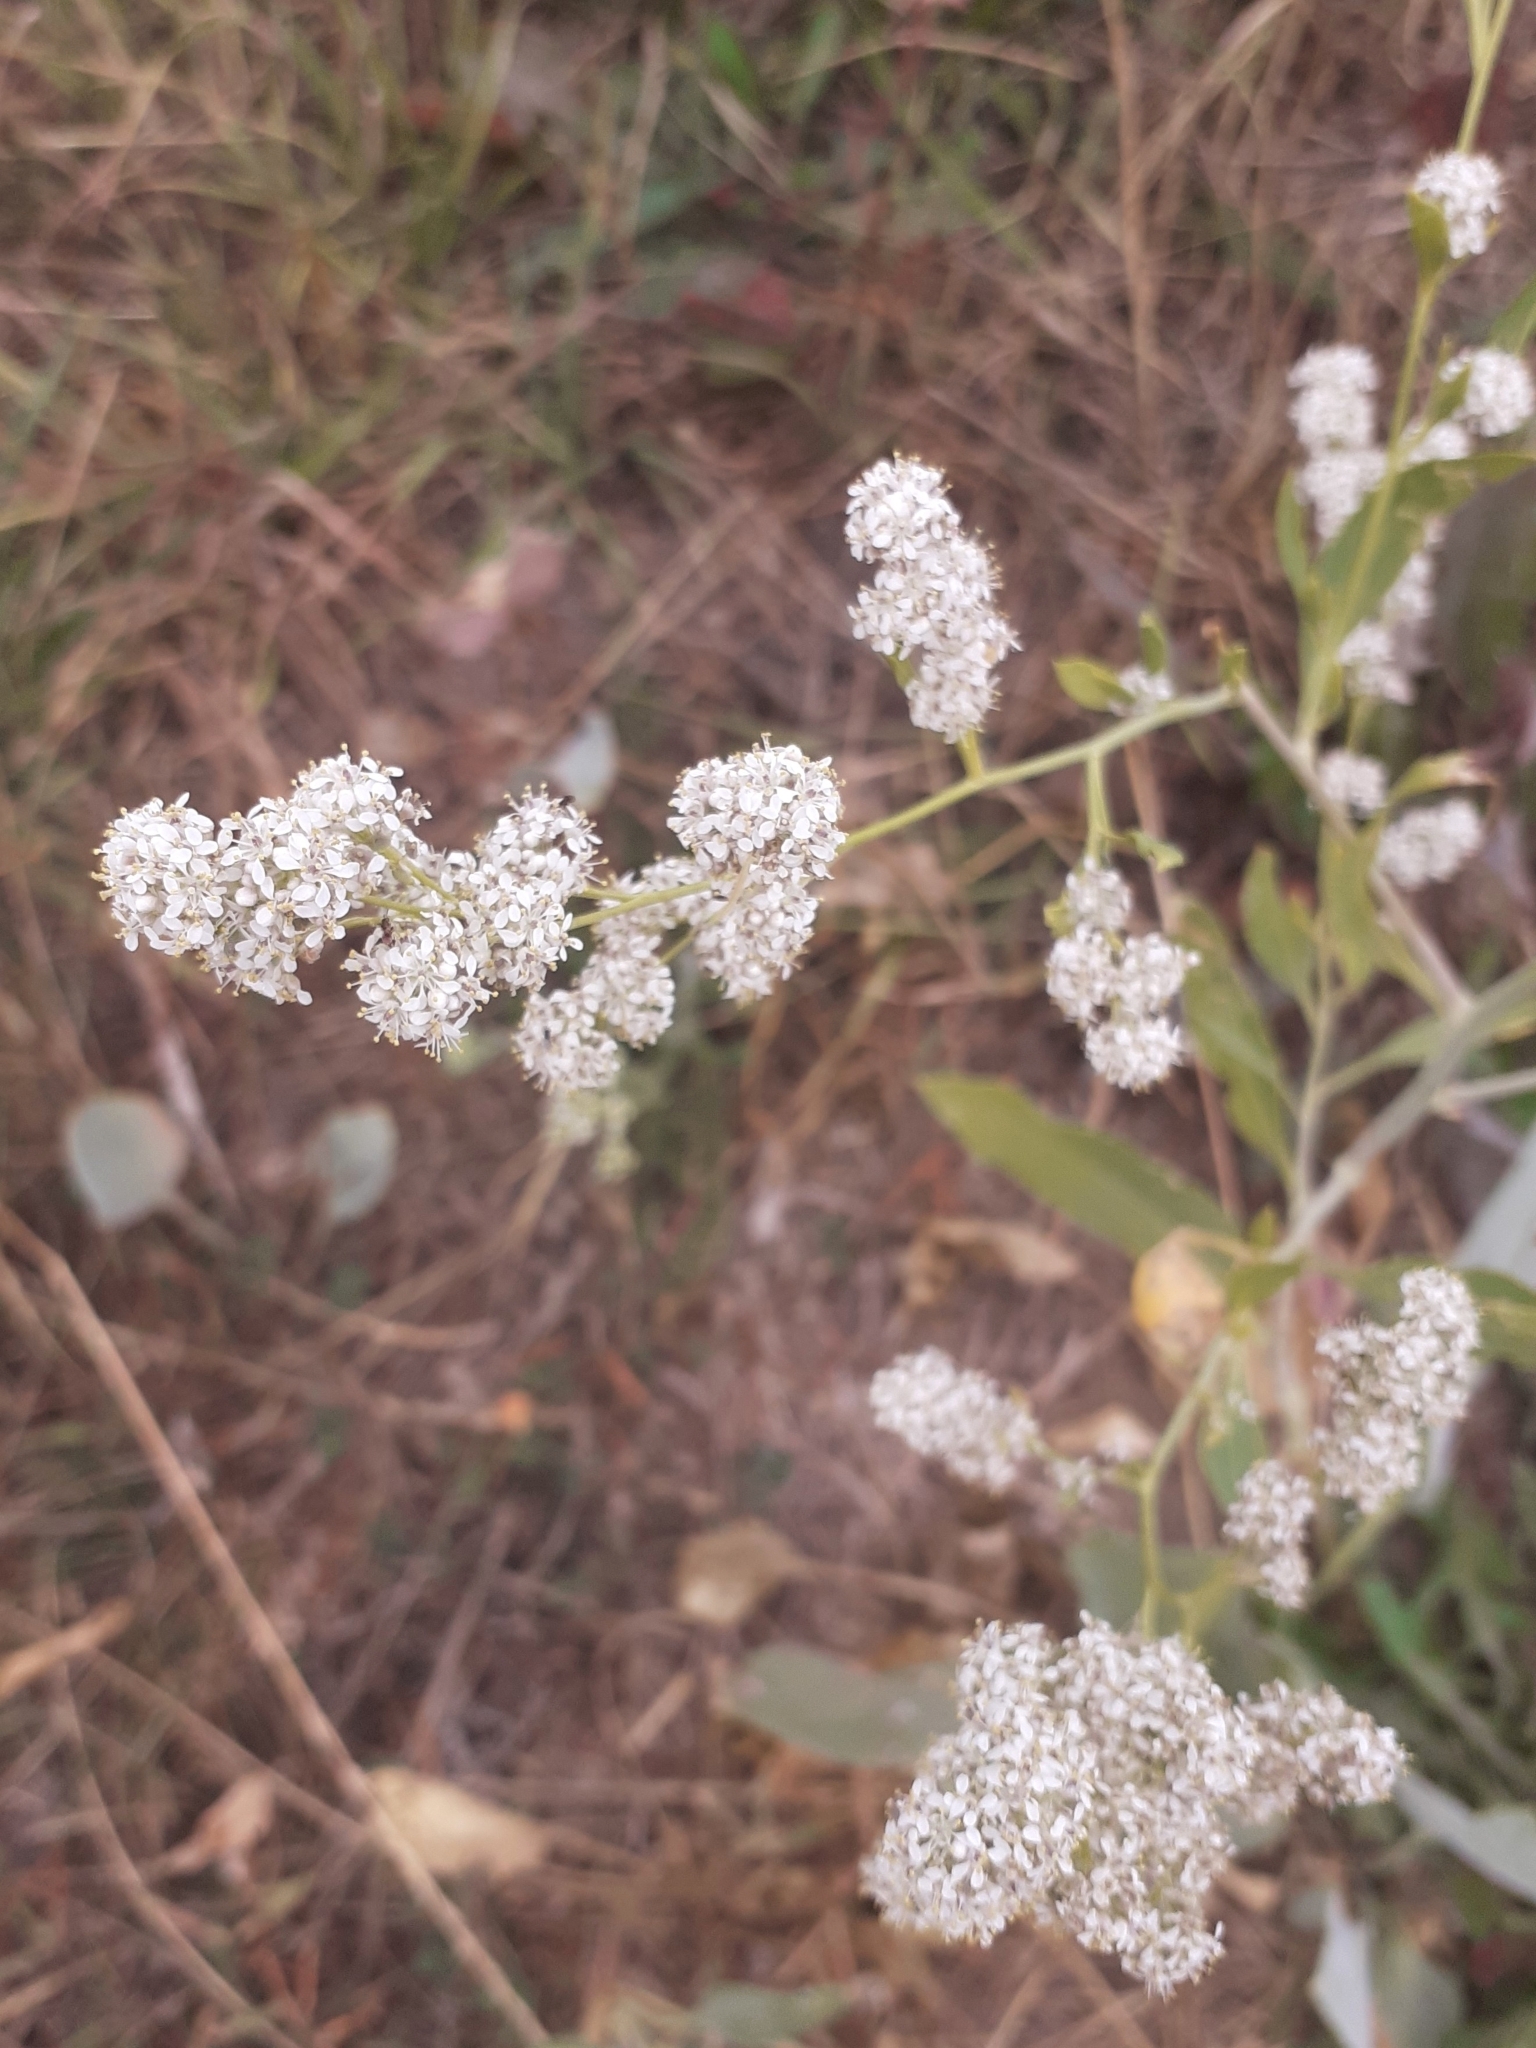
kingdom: Plantae
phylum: Tracheophyta
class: Magnoliopsida
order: Brassicales
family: Brassicaceae
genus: Lepidium
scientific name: Lepidium latifolium
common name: Dittander
